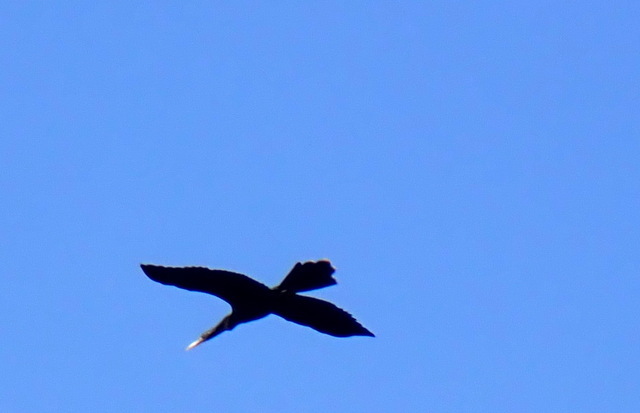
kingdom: Animalia
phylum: Chordata
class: Aves
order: Suliformes
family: Anhingidae
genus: Anhinga
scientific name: Anhinga anhinga
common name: Anhinga
